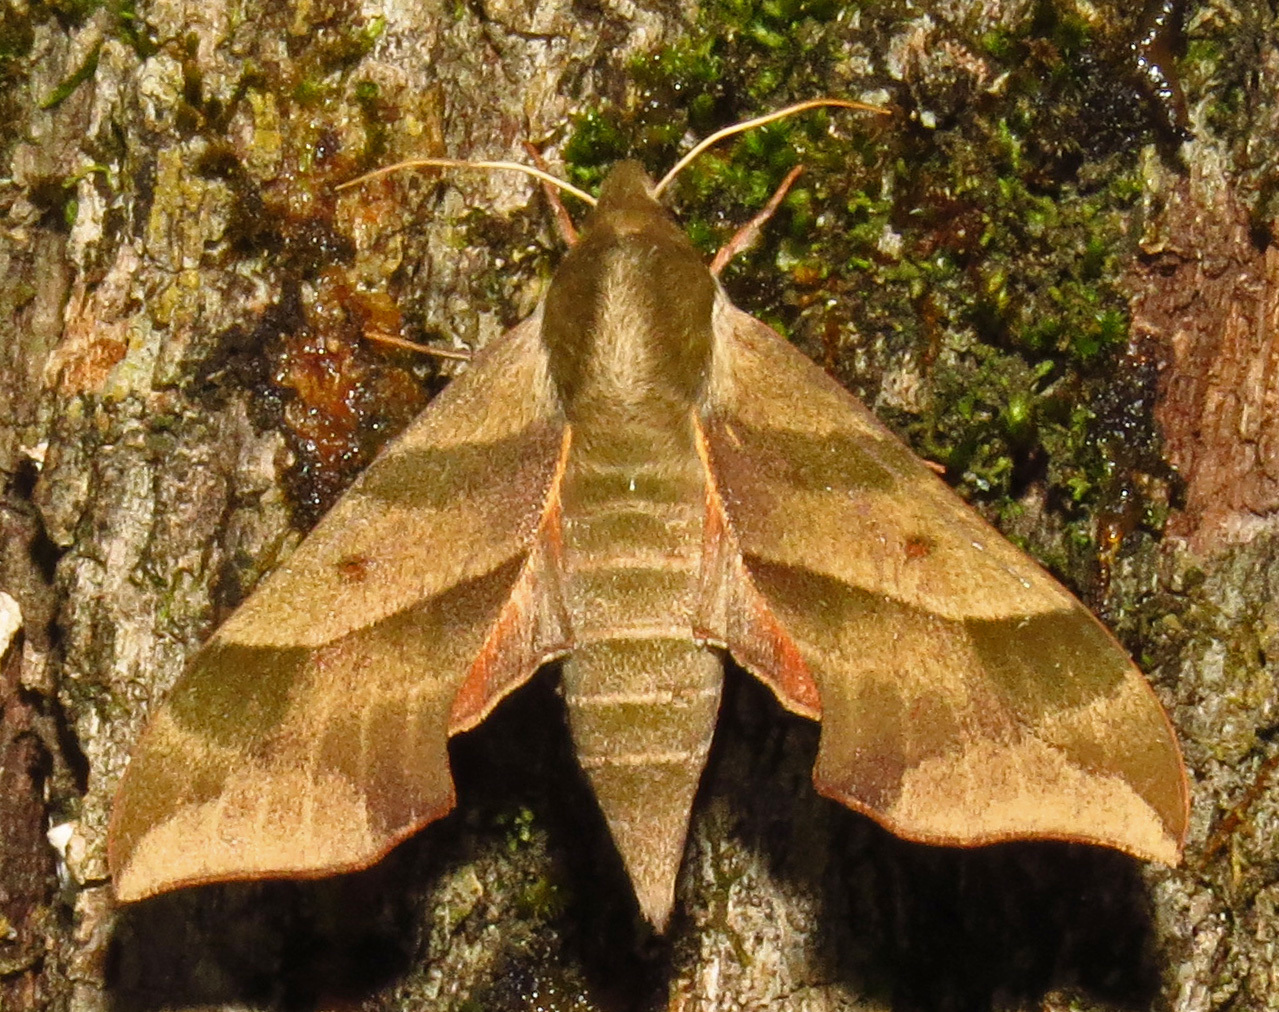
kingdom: Animalia
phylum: Arthropoda
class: Insecta
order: Lepidoptera
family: Sphingidae
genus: Darapsa
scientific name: Darapsa myron
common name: Hog sphinx
